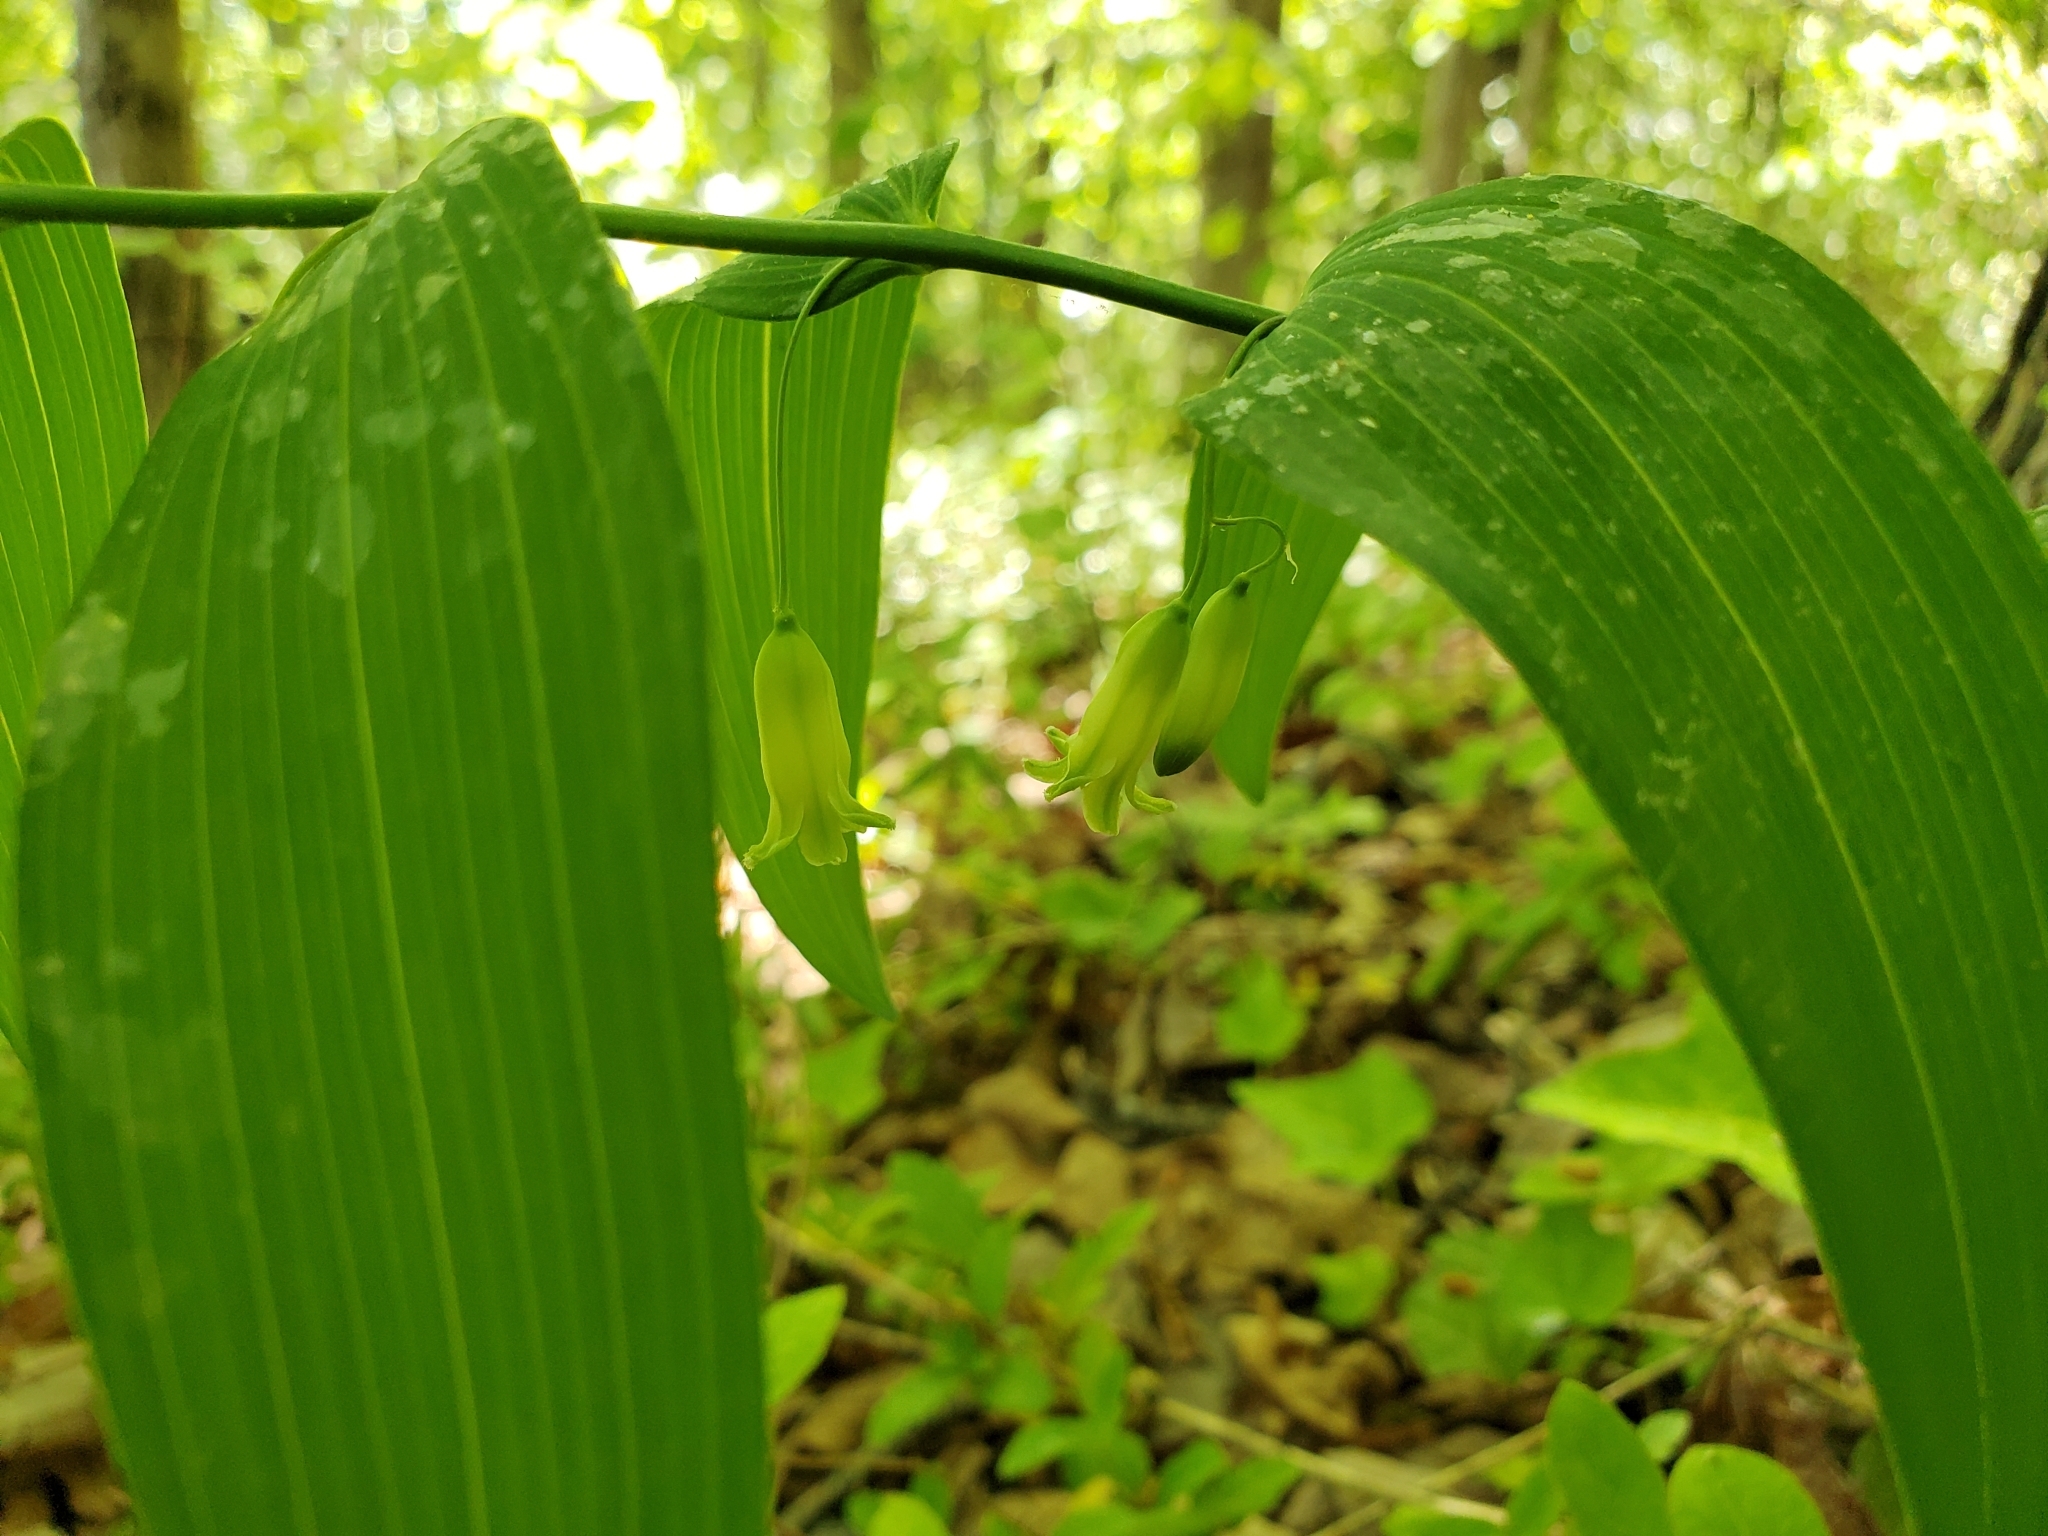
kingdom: Plantae
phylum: Tracheophyta
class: Liliopsida
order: Asparagales
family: Asparagaceae
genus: Polygonatum
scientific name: Polygonatum biflorum
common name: American solomon's-seal
